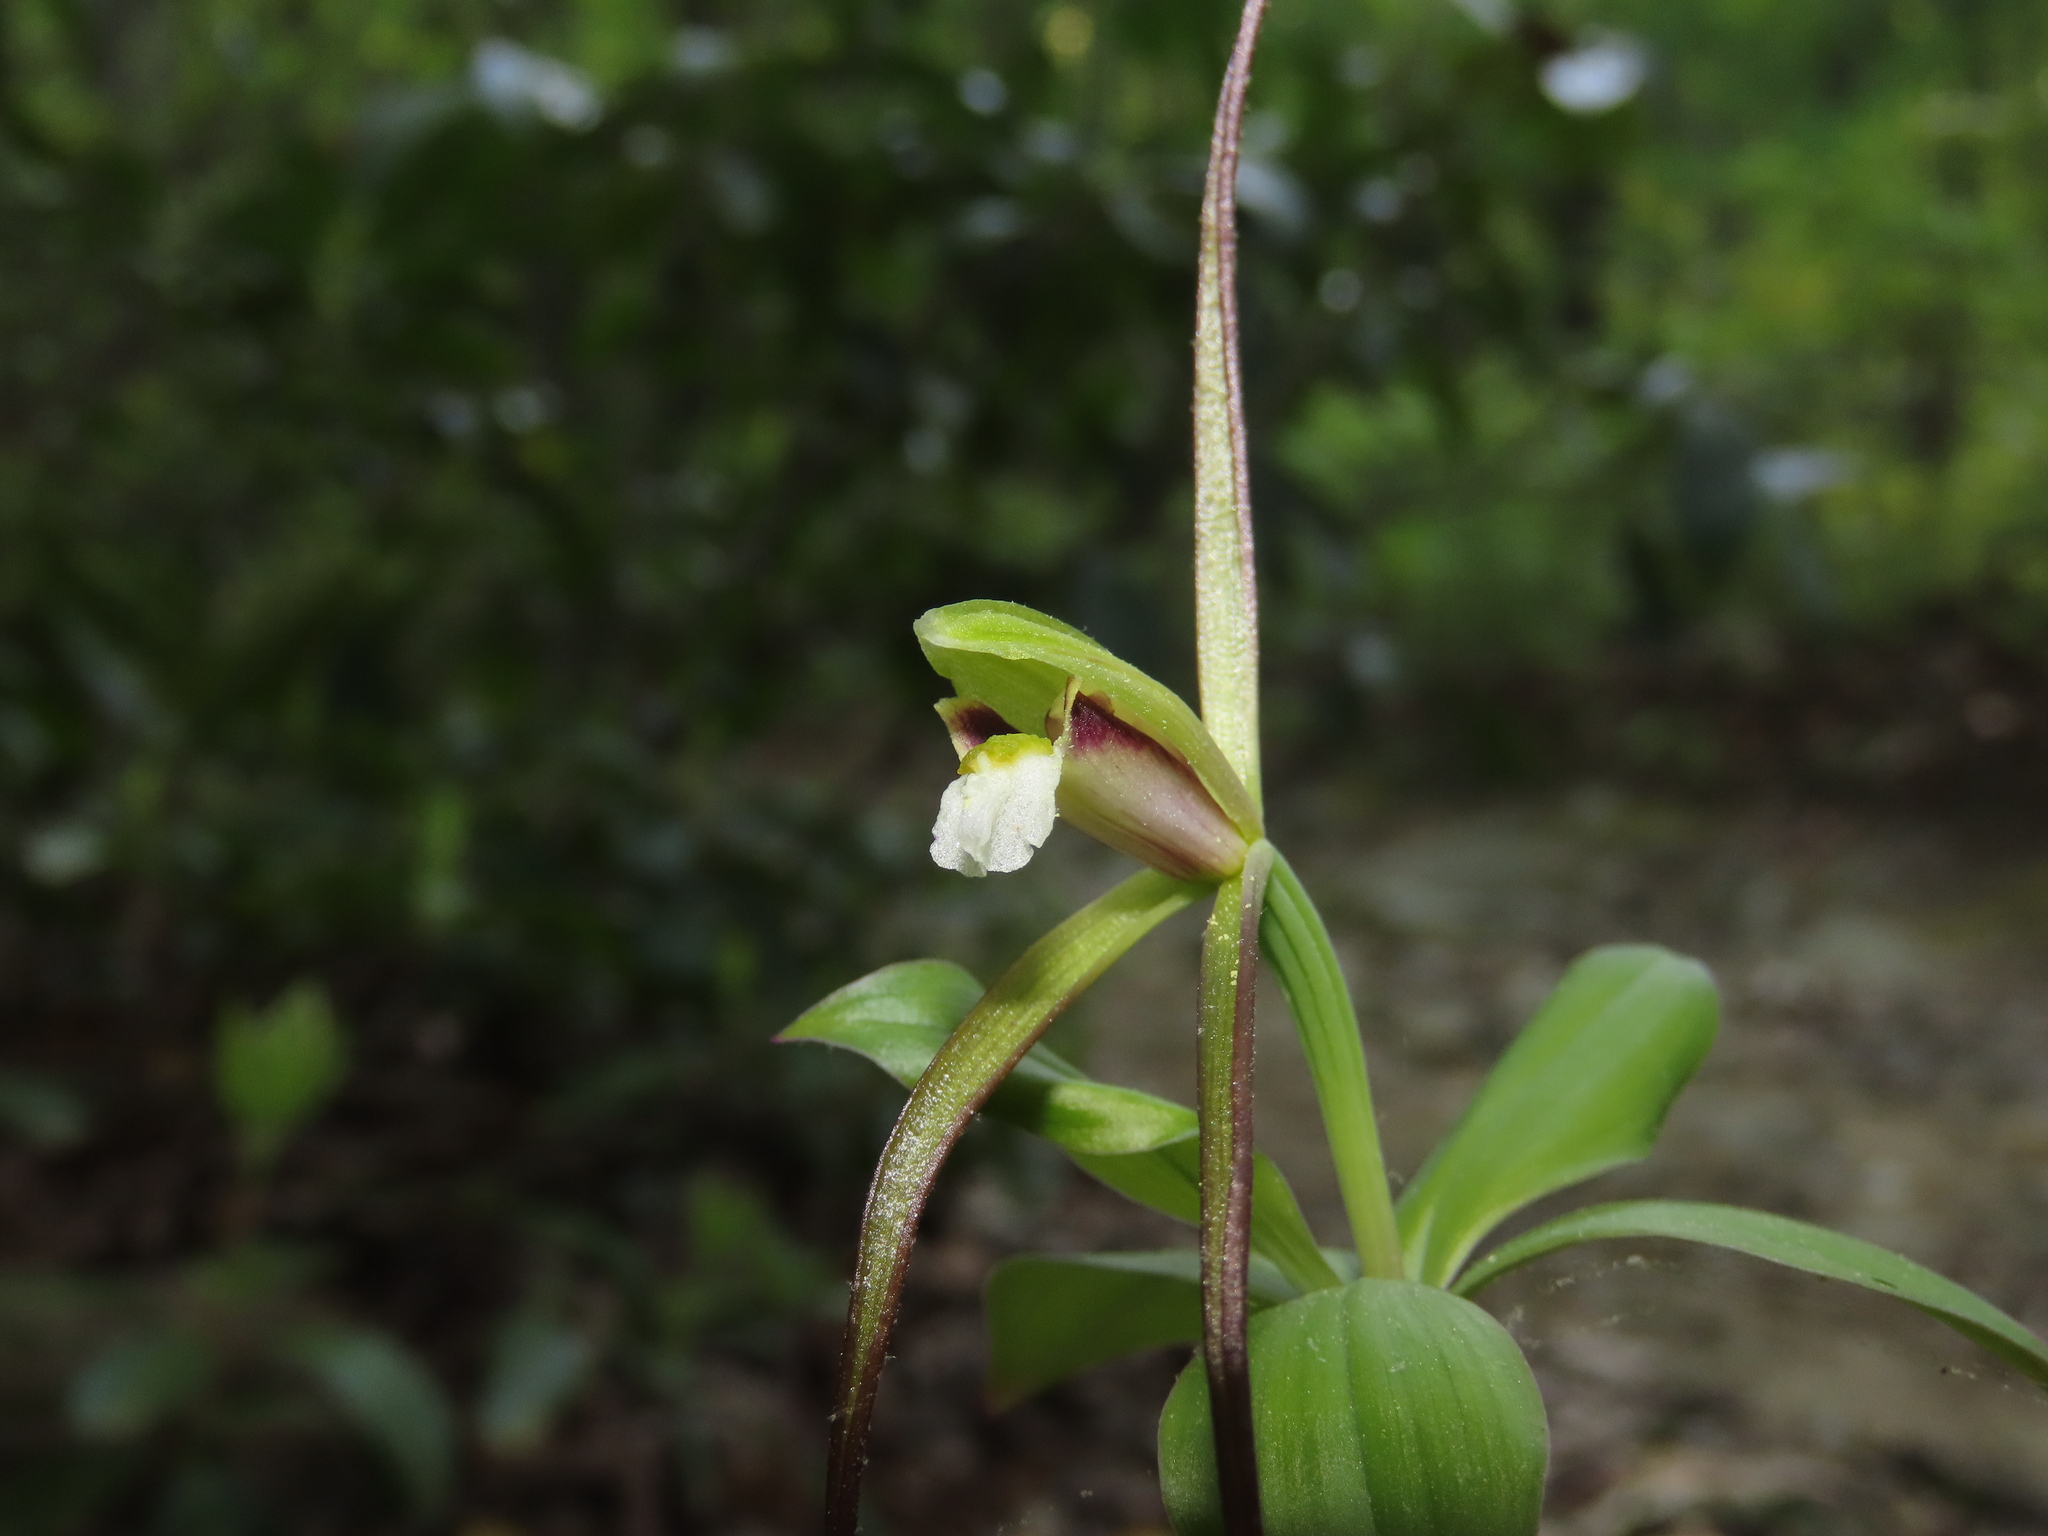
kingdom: Plantae
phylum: Tracheophyta
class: Liliopsida
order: Asparagales
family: Orchidaceae
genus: Isotria
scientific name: Isotria verticillata
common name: Large whorled pogonia
